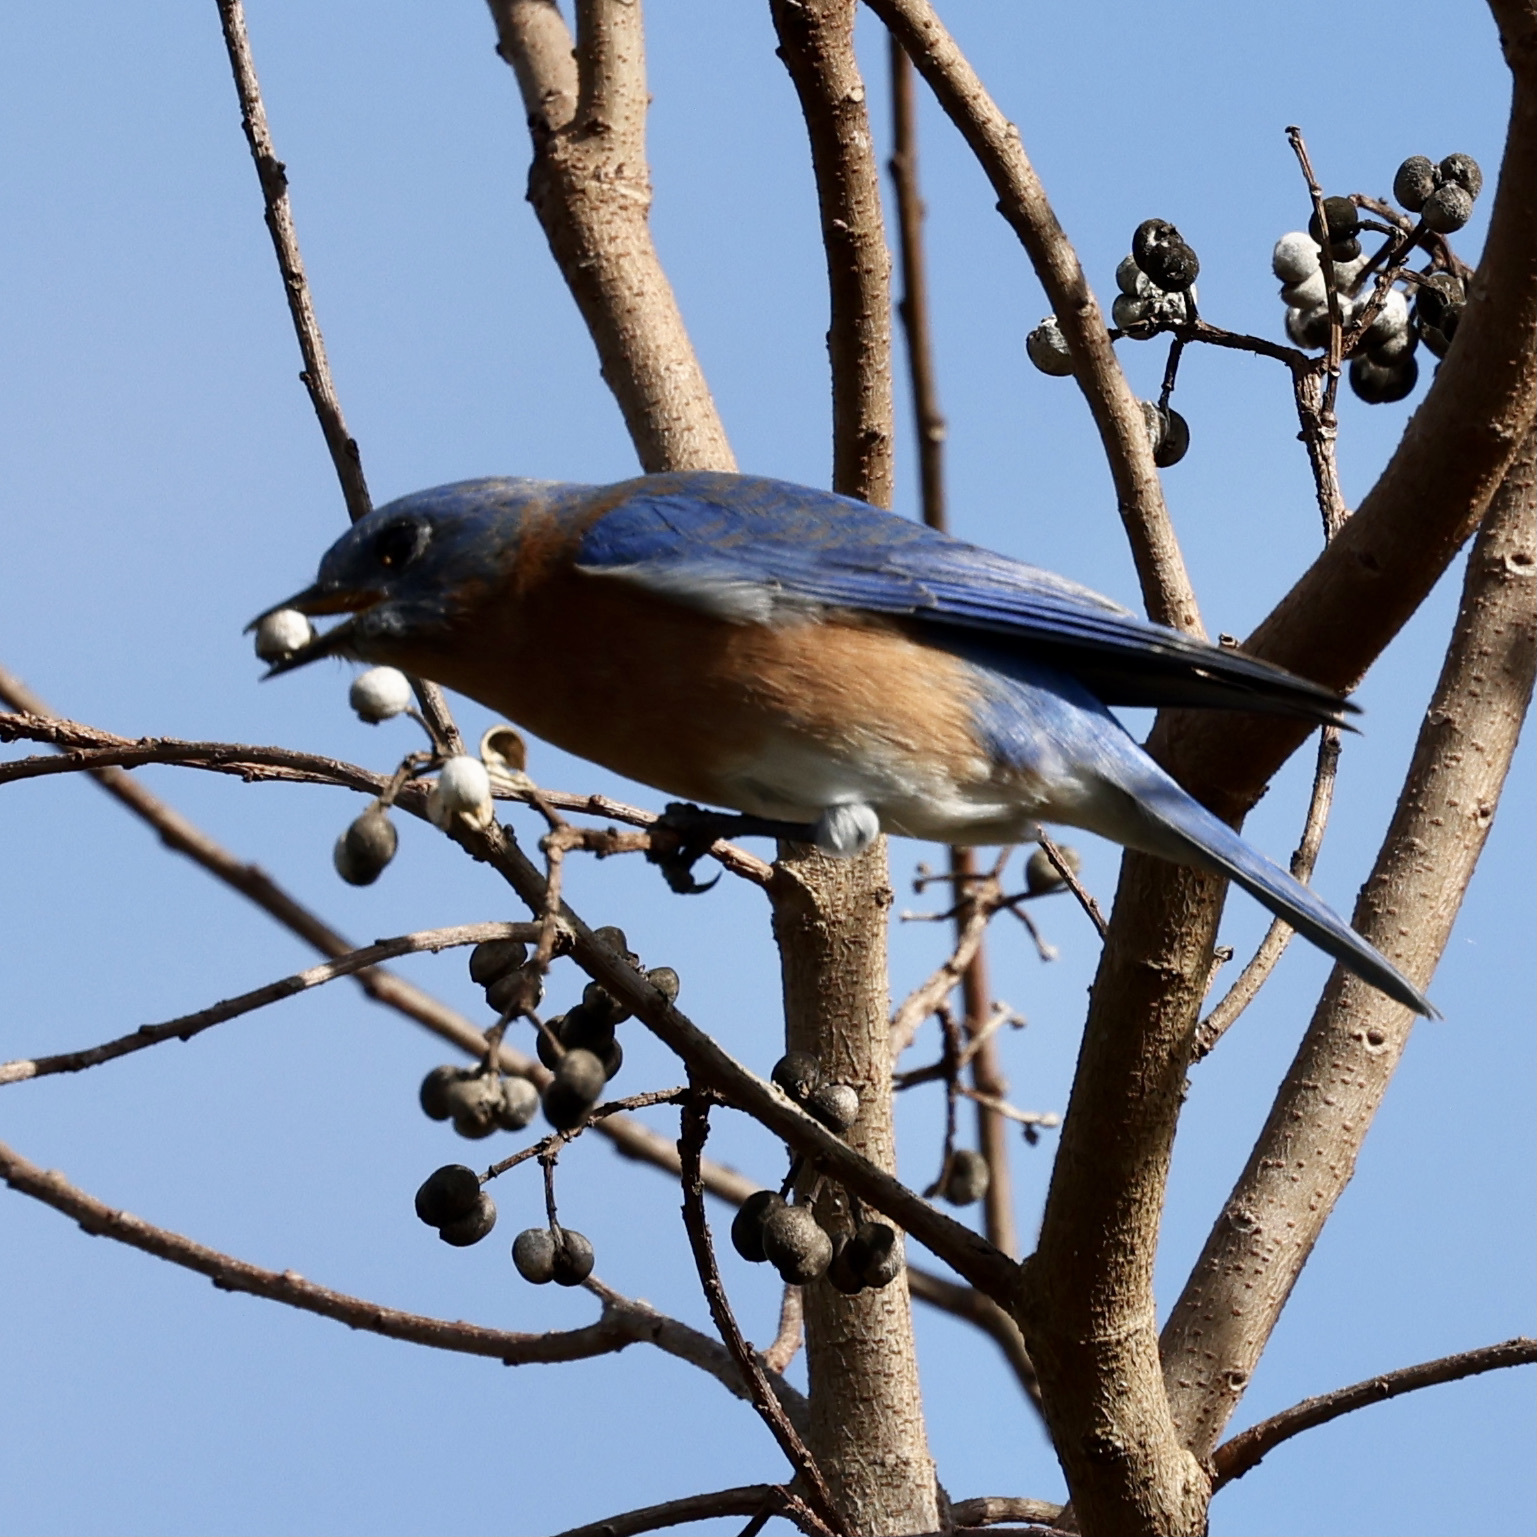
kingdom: Animalia
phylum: Chordata
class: Aves
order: Passeriformes
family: Turdidae
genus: Sialia
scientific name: Sialia sialis
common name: Eastern bluebird
